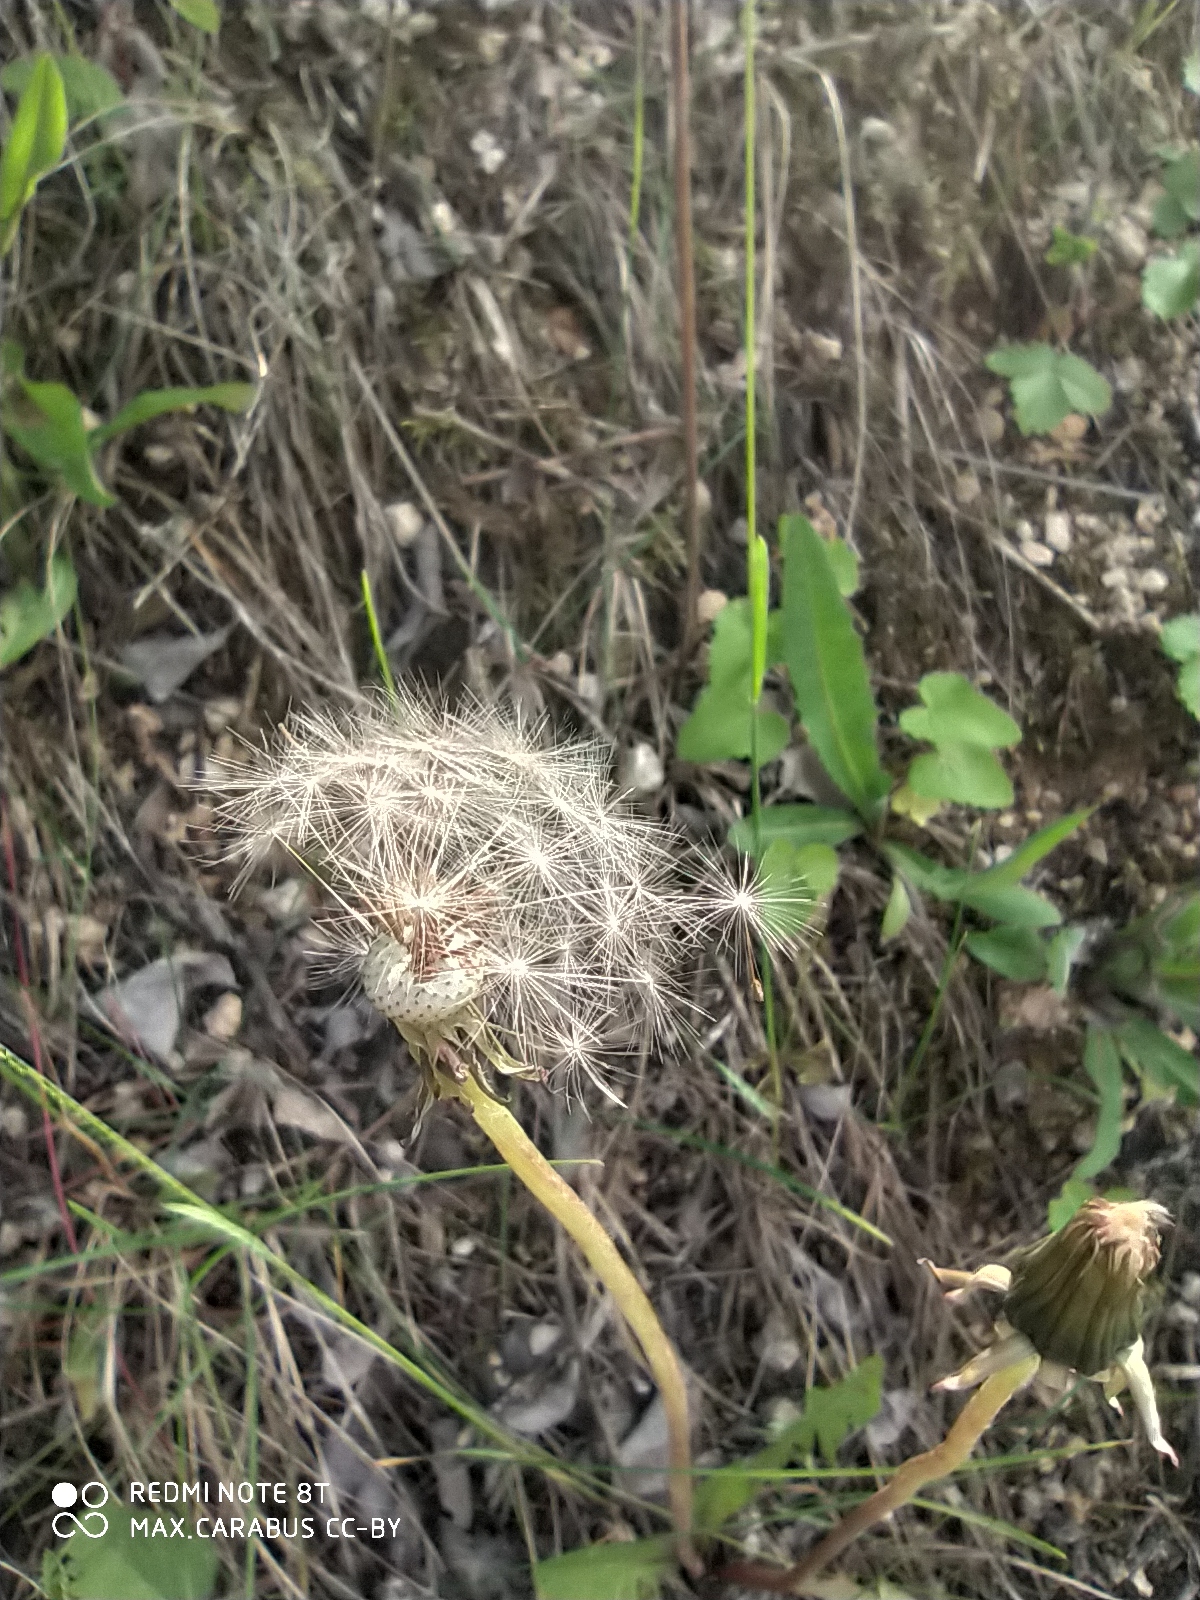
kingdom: Plantae
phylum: Tracheophyta
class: Magnoliopsida
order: Asterales
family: Asteraceae
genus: Taraxacum
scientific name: Taraxacum officinale
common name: Common dandelion
